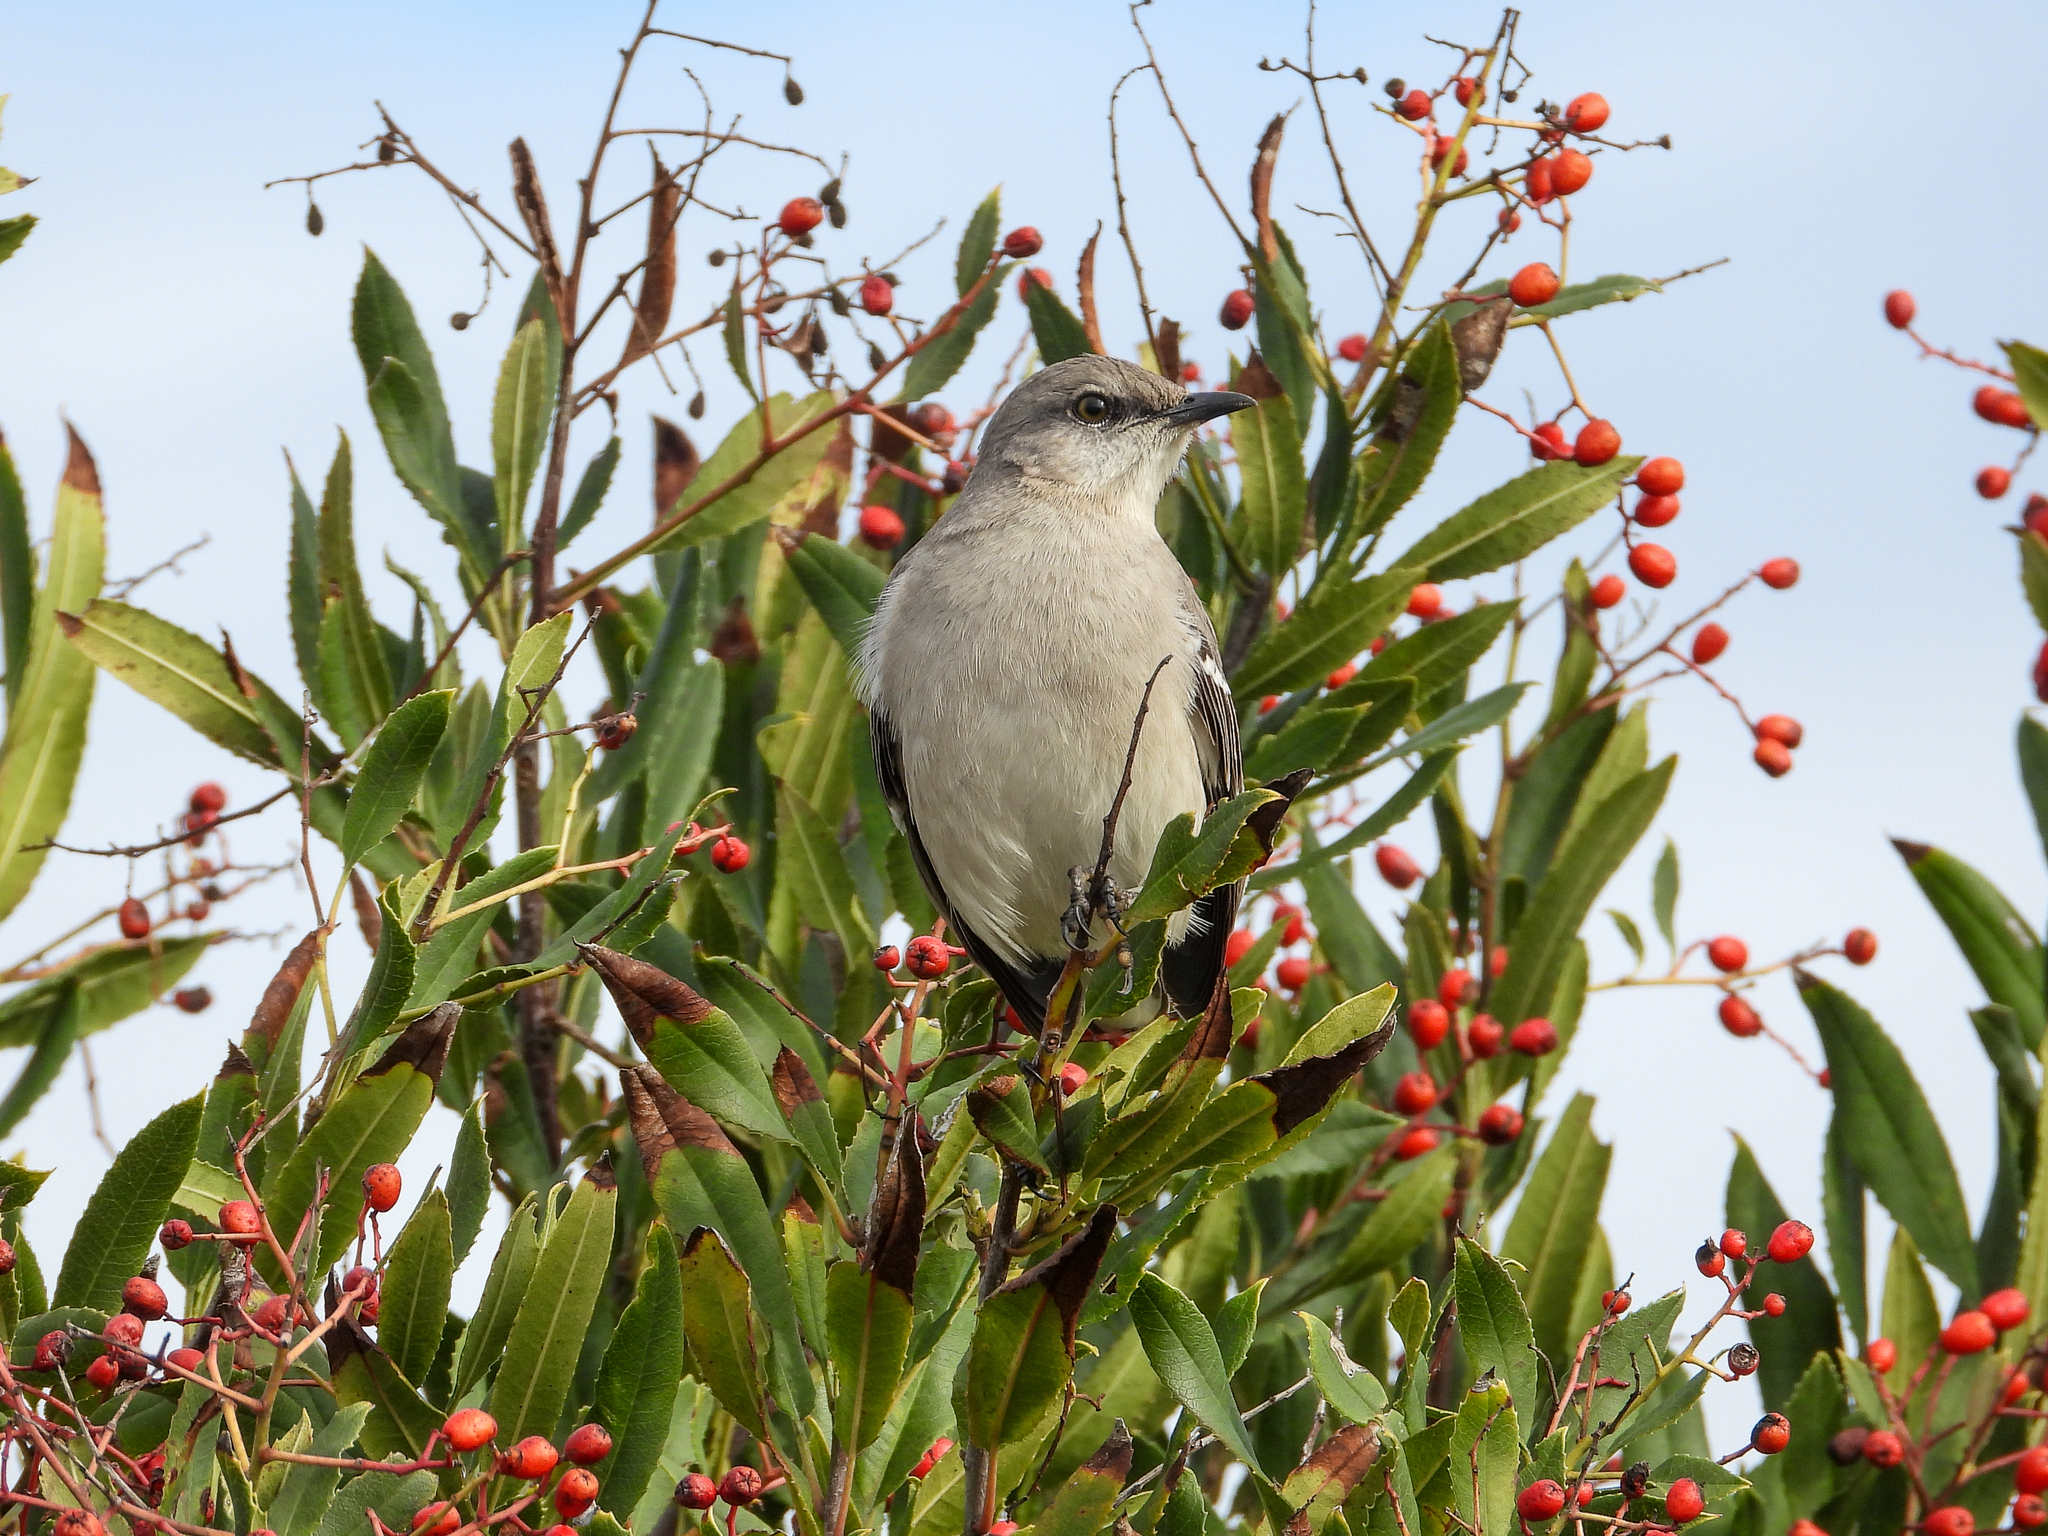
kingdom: Animalia
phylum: Chordata
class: Aves
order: Passeriformes
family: Mimidae
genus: Mimus
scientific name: Mimus polyglottos
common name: Northern mockingbird
